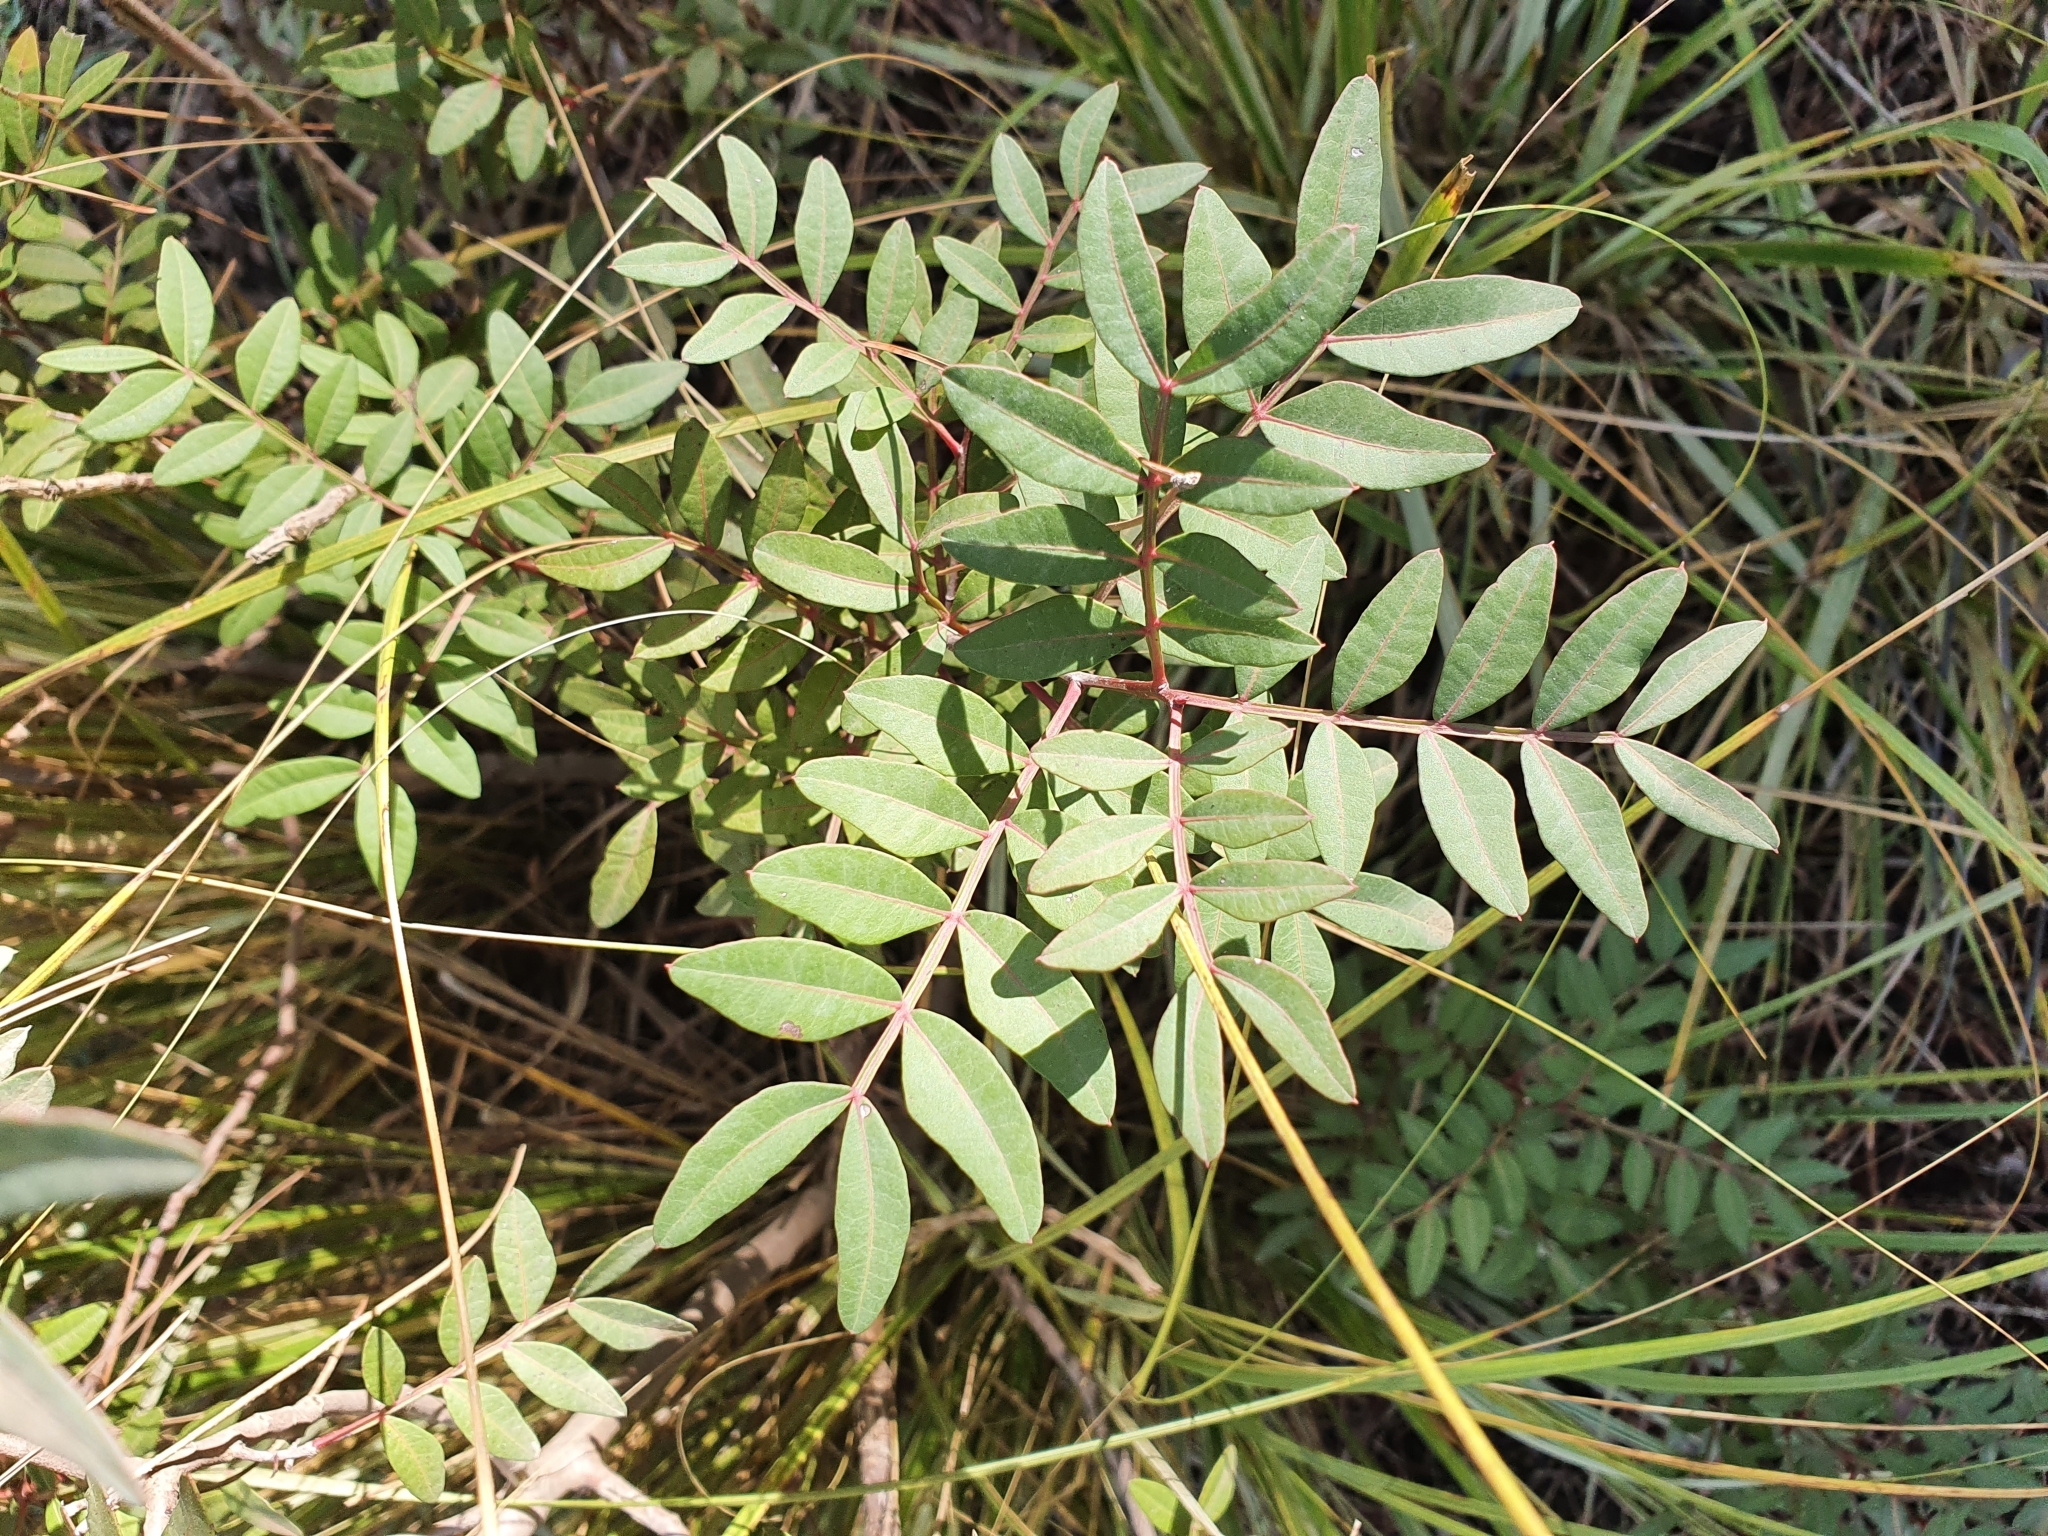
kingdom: Plantae
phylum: Tracheophyta
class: Magnoliopsida
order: Sapindales
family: Anacardiaceae
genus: Pistacia
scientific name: Pistacia lentiscus
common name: Lentisk
